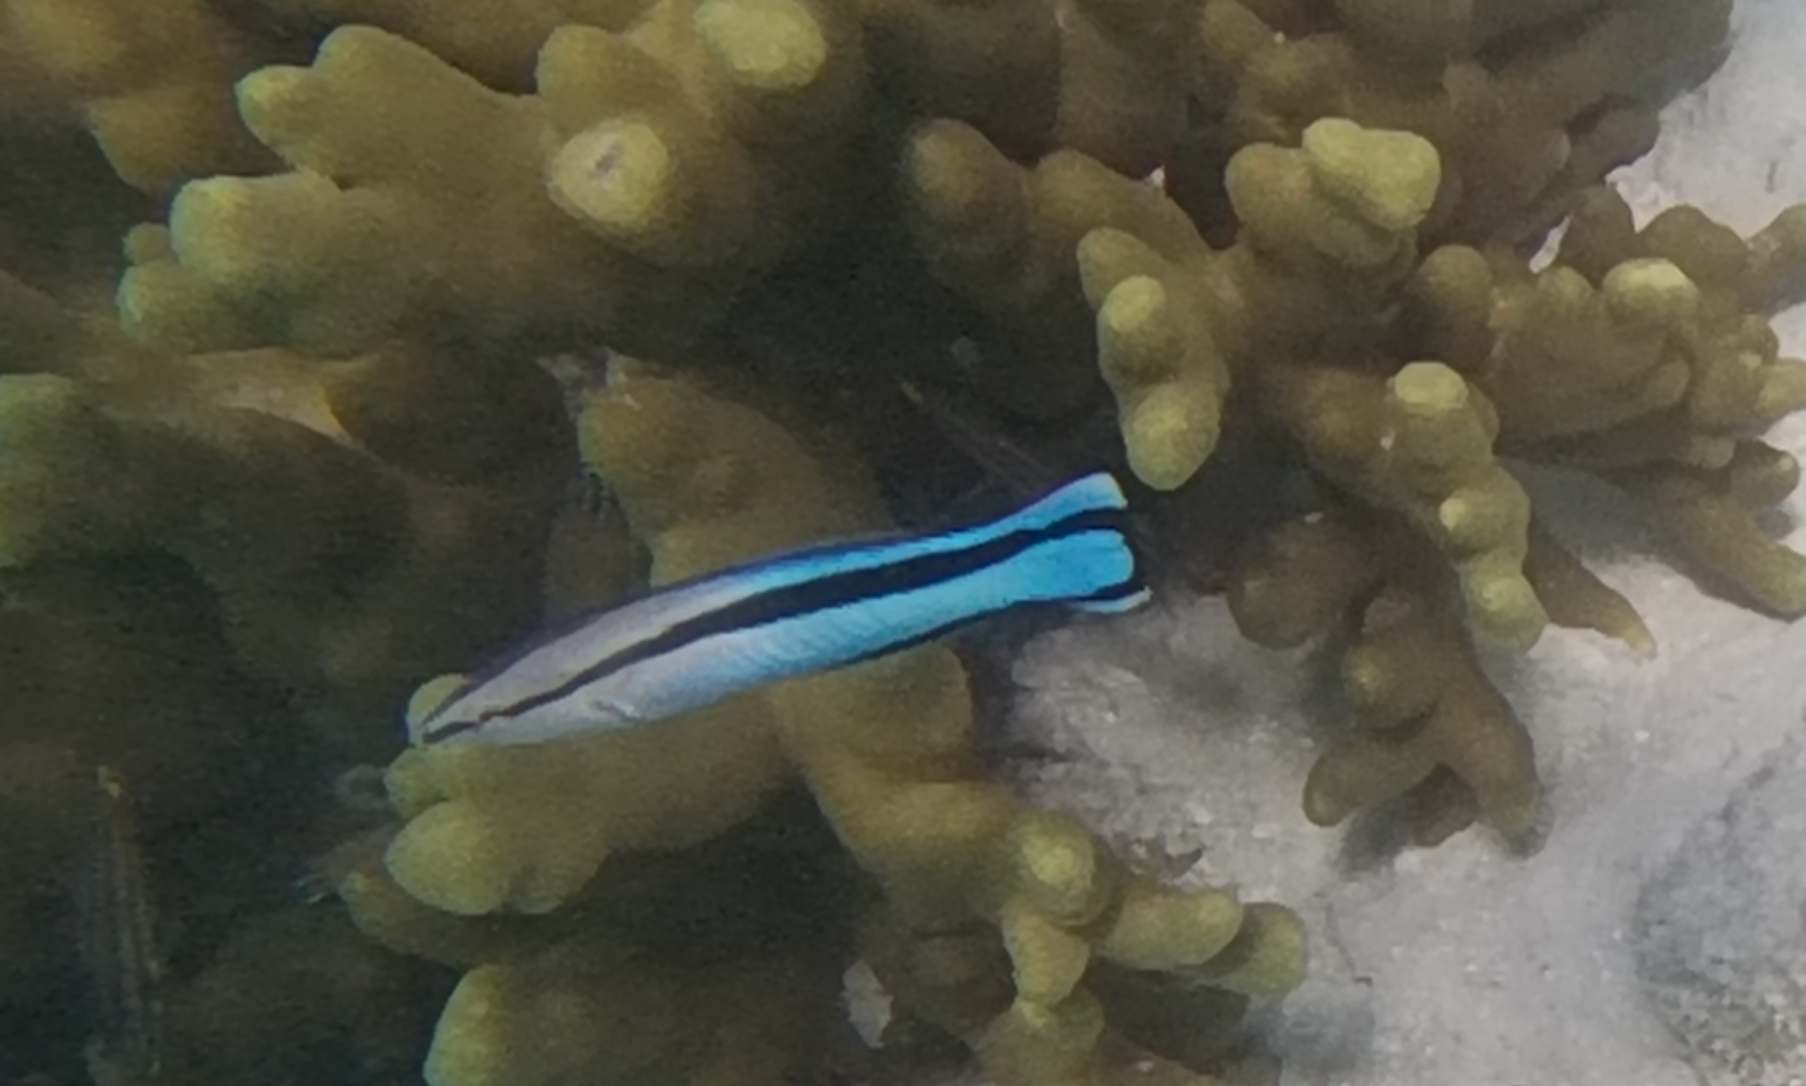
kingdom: Animalia
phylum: Chordata
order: Perciformes
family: Labridae
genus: Labroides
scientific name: Labroides dimidiatus
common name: Blue diesel wrasse
